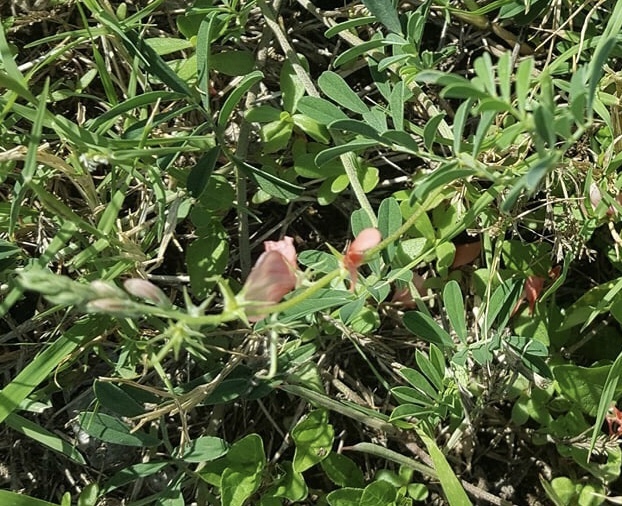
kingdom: Plantae
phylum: Tracheophyta
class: Magnoliopsida
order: Fabales
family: Fabaceae
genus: Indigofera
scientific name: Indigofera miniata
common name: Coast indigo
